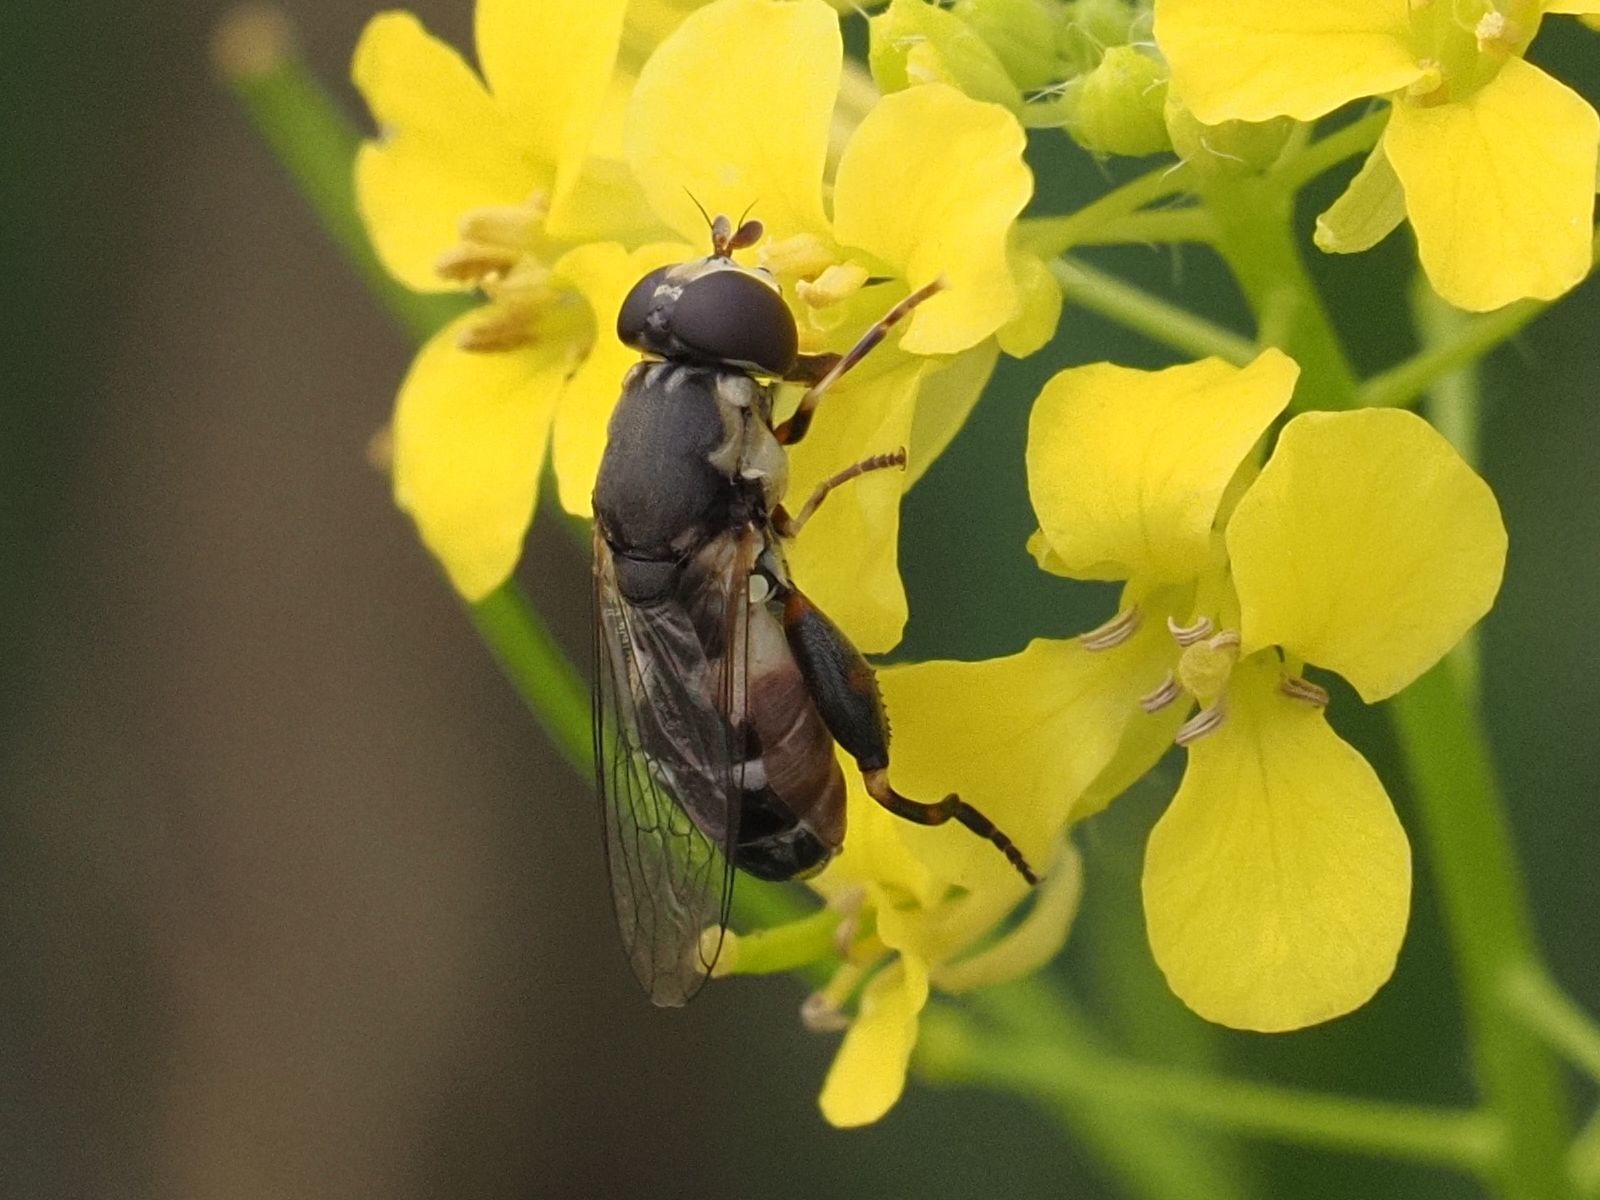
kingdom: Animalia
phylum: Arthropoda
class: Insecta
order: Diptera
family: Syrphidae
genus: Syritta
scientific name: Syritta pipiens
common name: Hover fly
